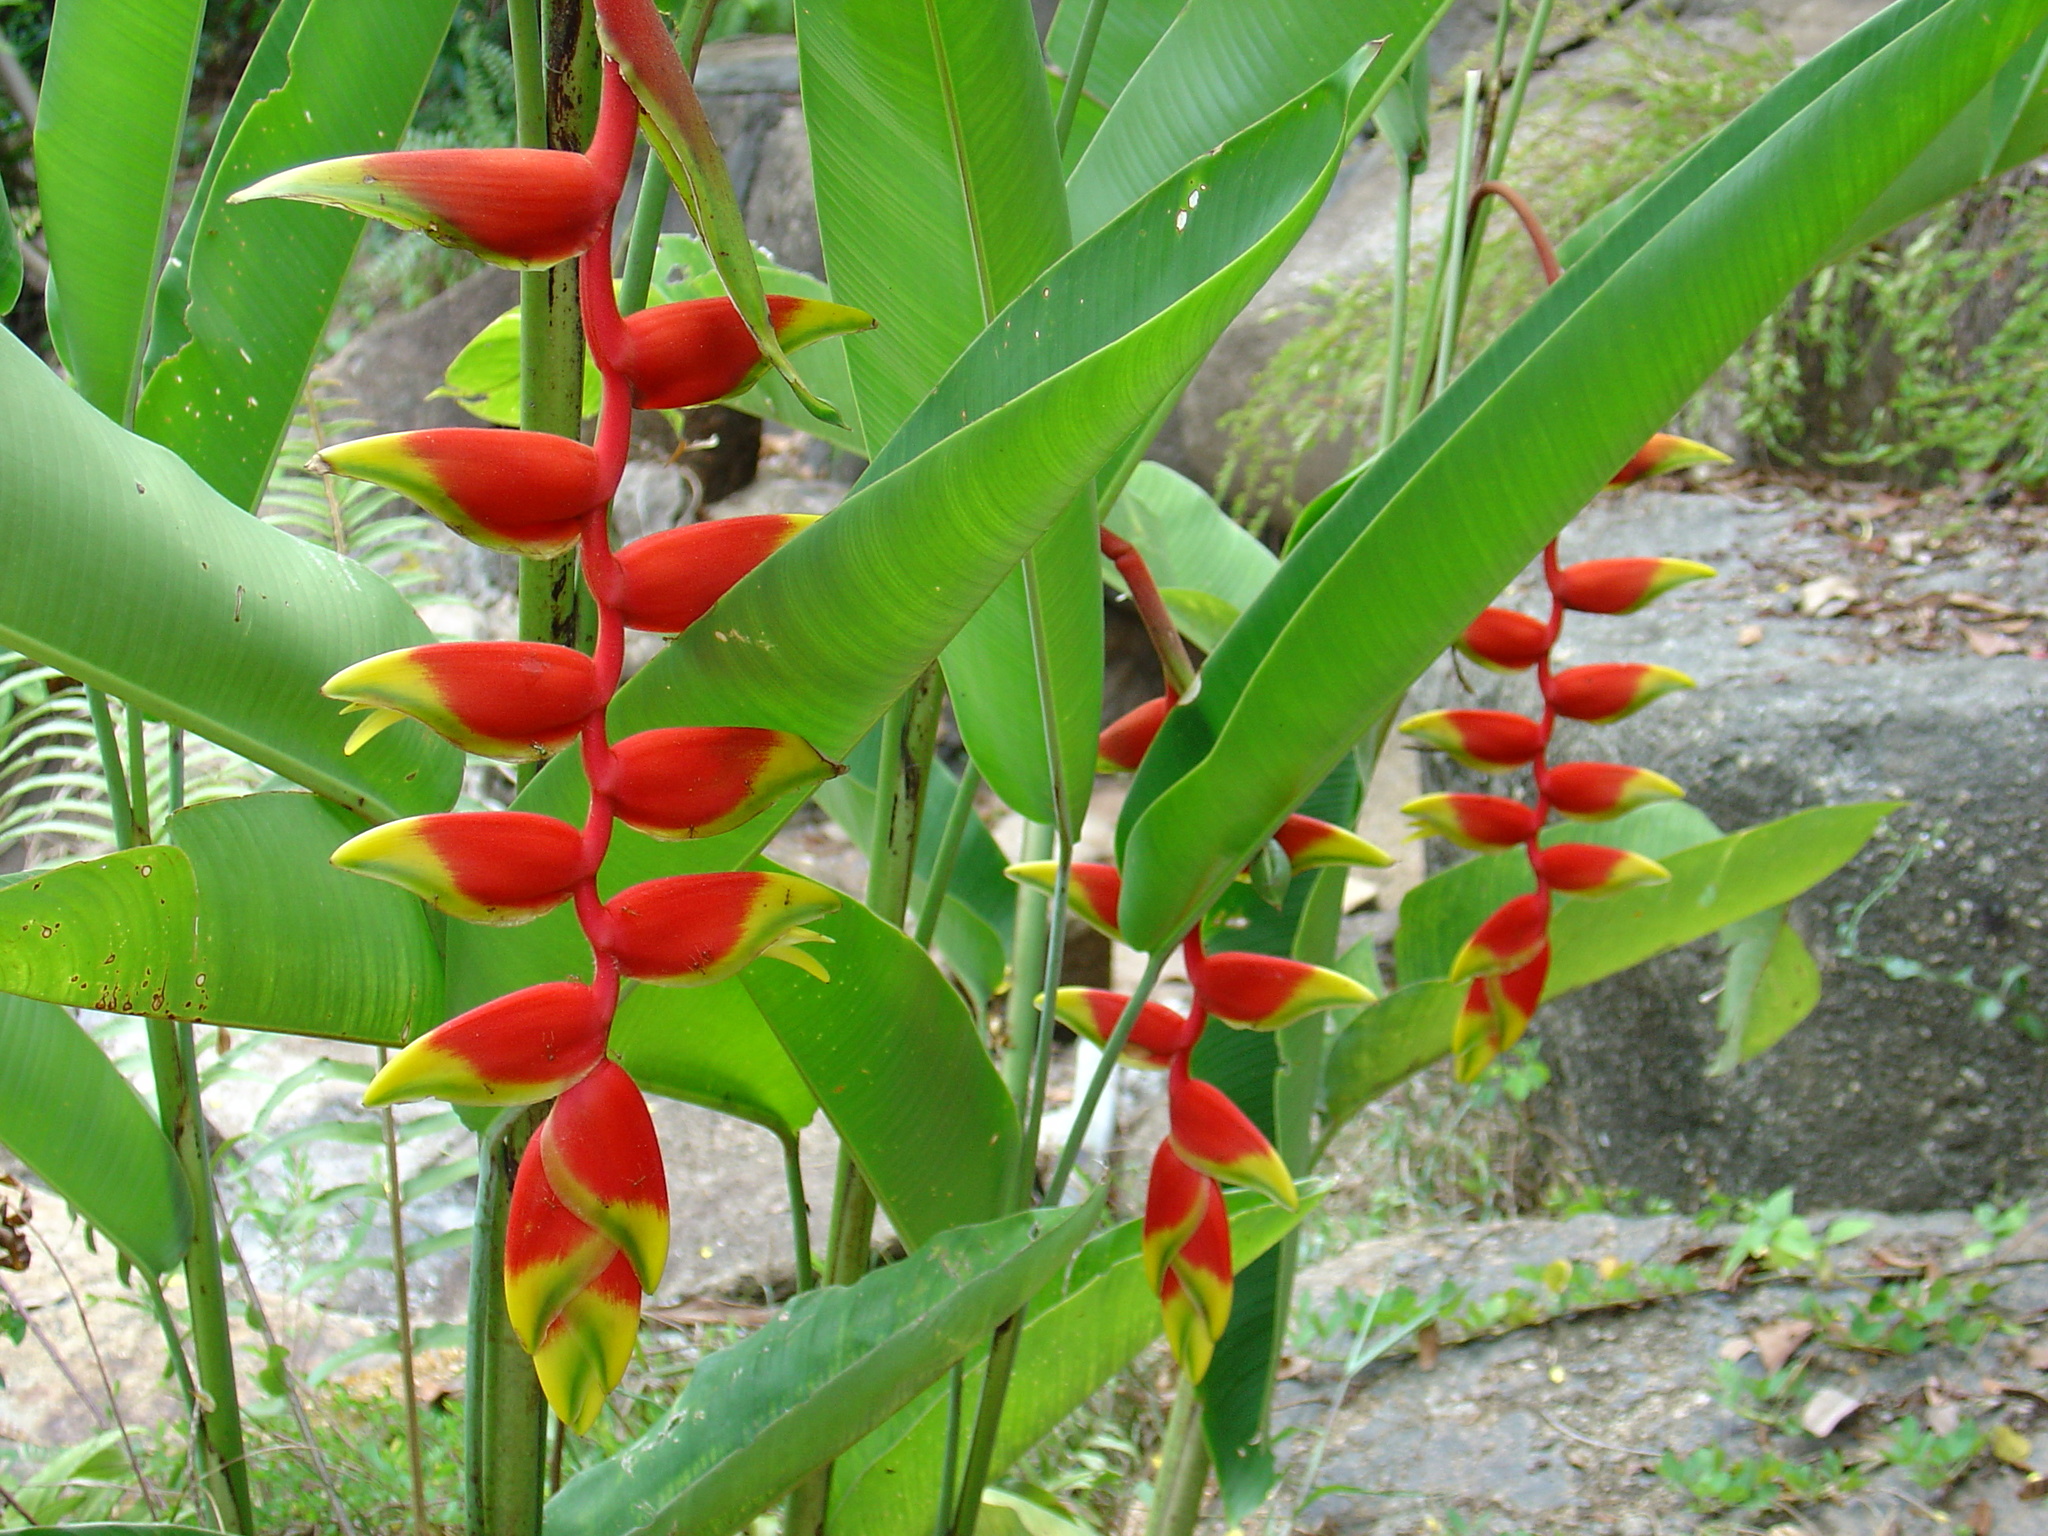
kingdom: Plantae
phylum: Tracheophyta
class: Liliopsida
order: Zingiberales
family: Heliconiaceae
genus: Heliconia
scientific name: Heliconia rostrata
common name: False bird of paradise
